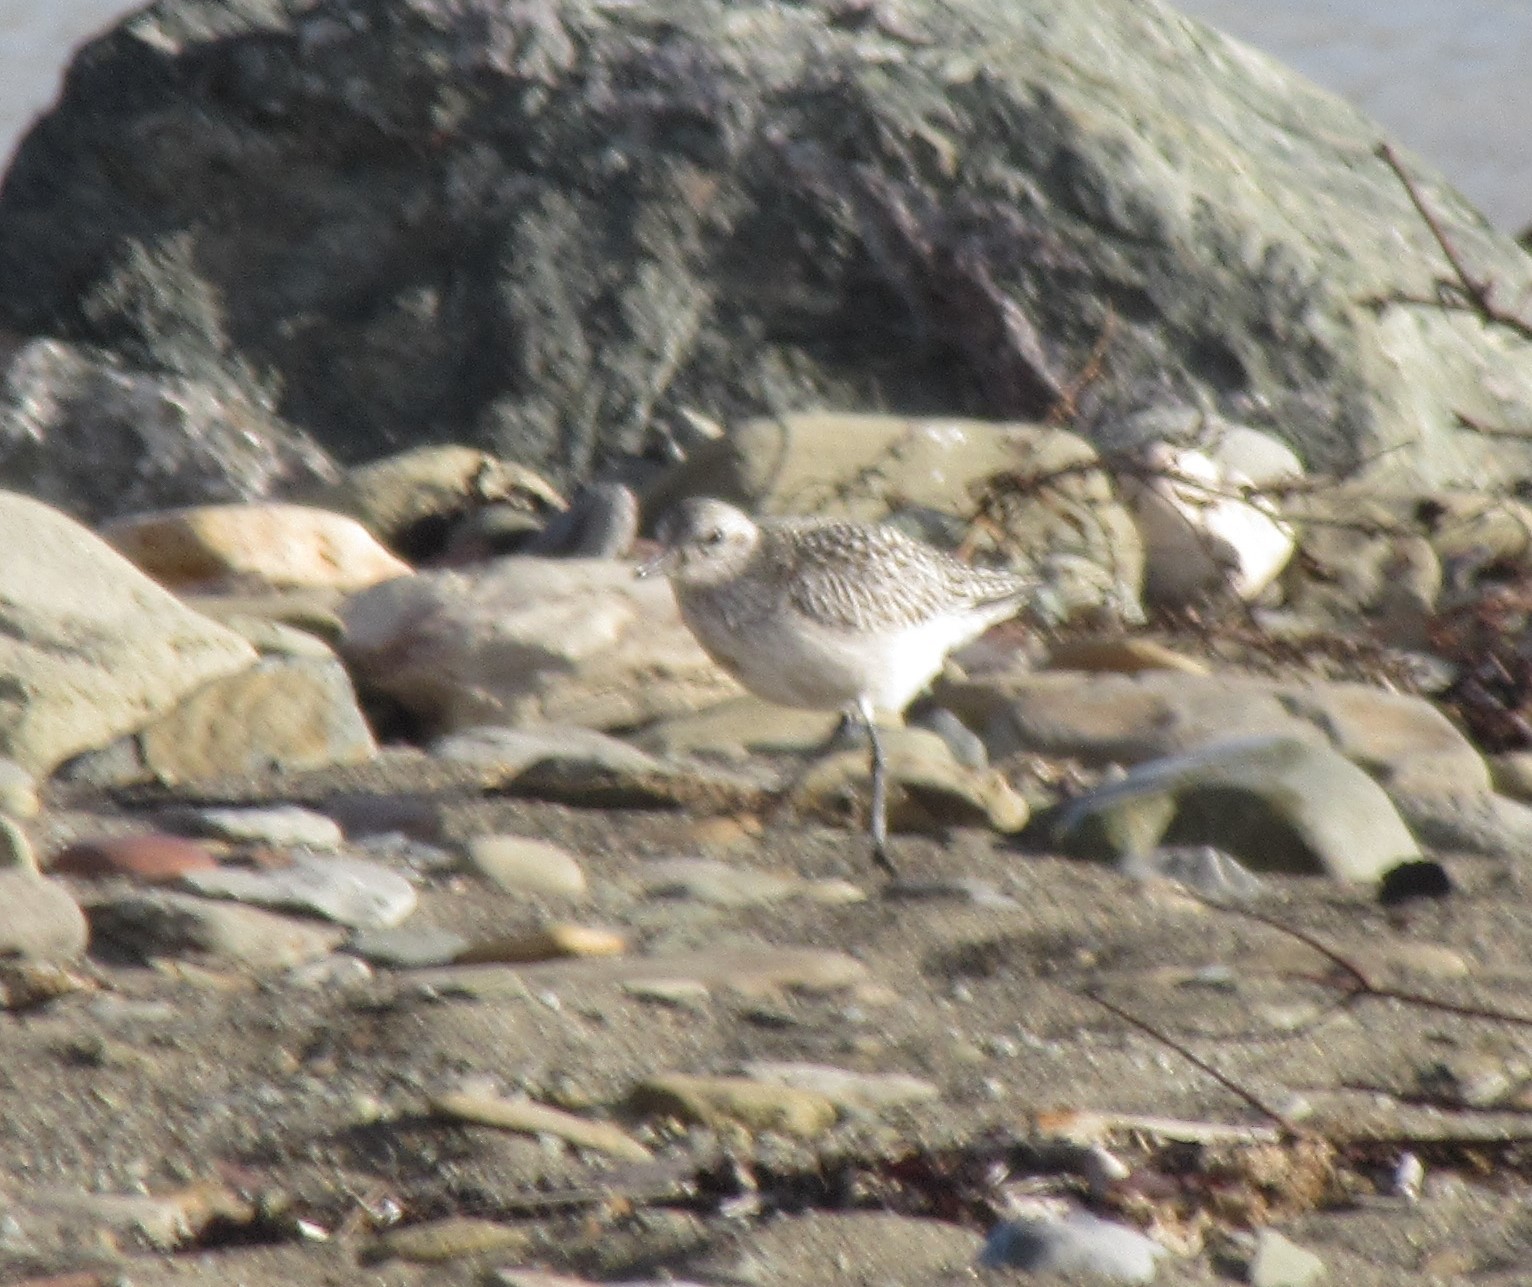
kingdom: Animalia
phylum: Chordata
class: Aves
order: Charadriiformes
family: Charadriidae
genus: Pluvialis
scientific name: Pluvialis squatarola
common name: Grey plover
